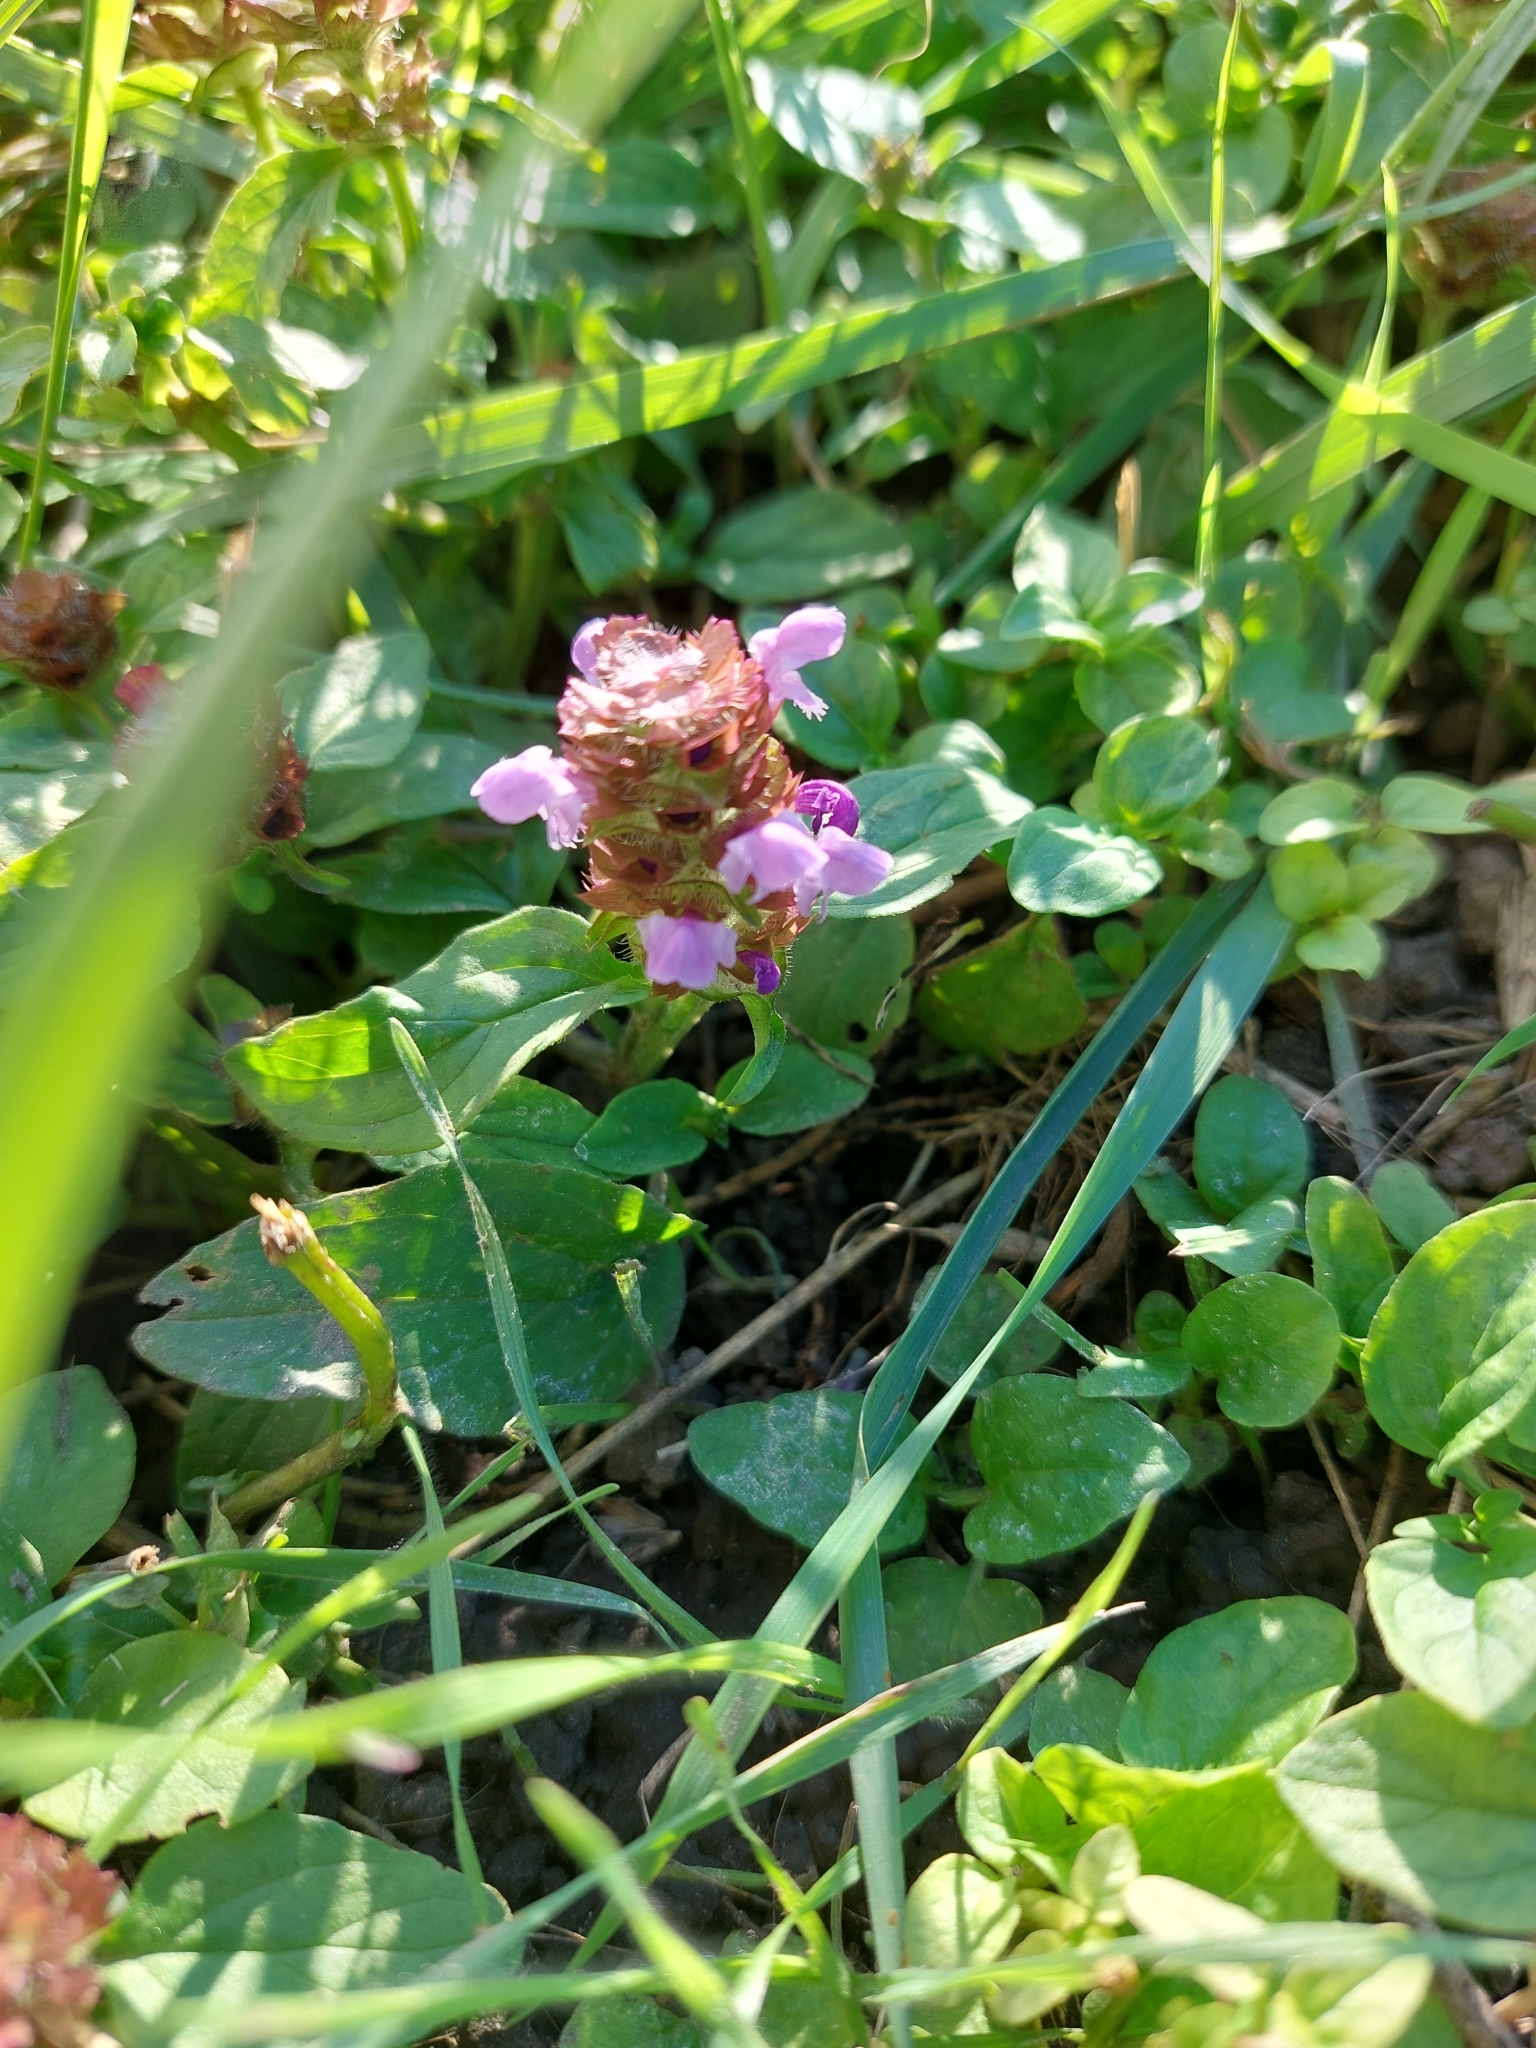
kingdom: Plantae
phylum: Tracheophyta
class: Magnoliopsida
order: Lamiales
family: Lamiaceae
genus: Prunella
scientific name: Prunella vulgaris
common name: Heal-all
